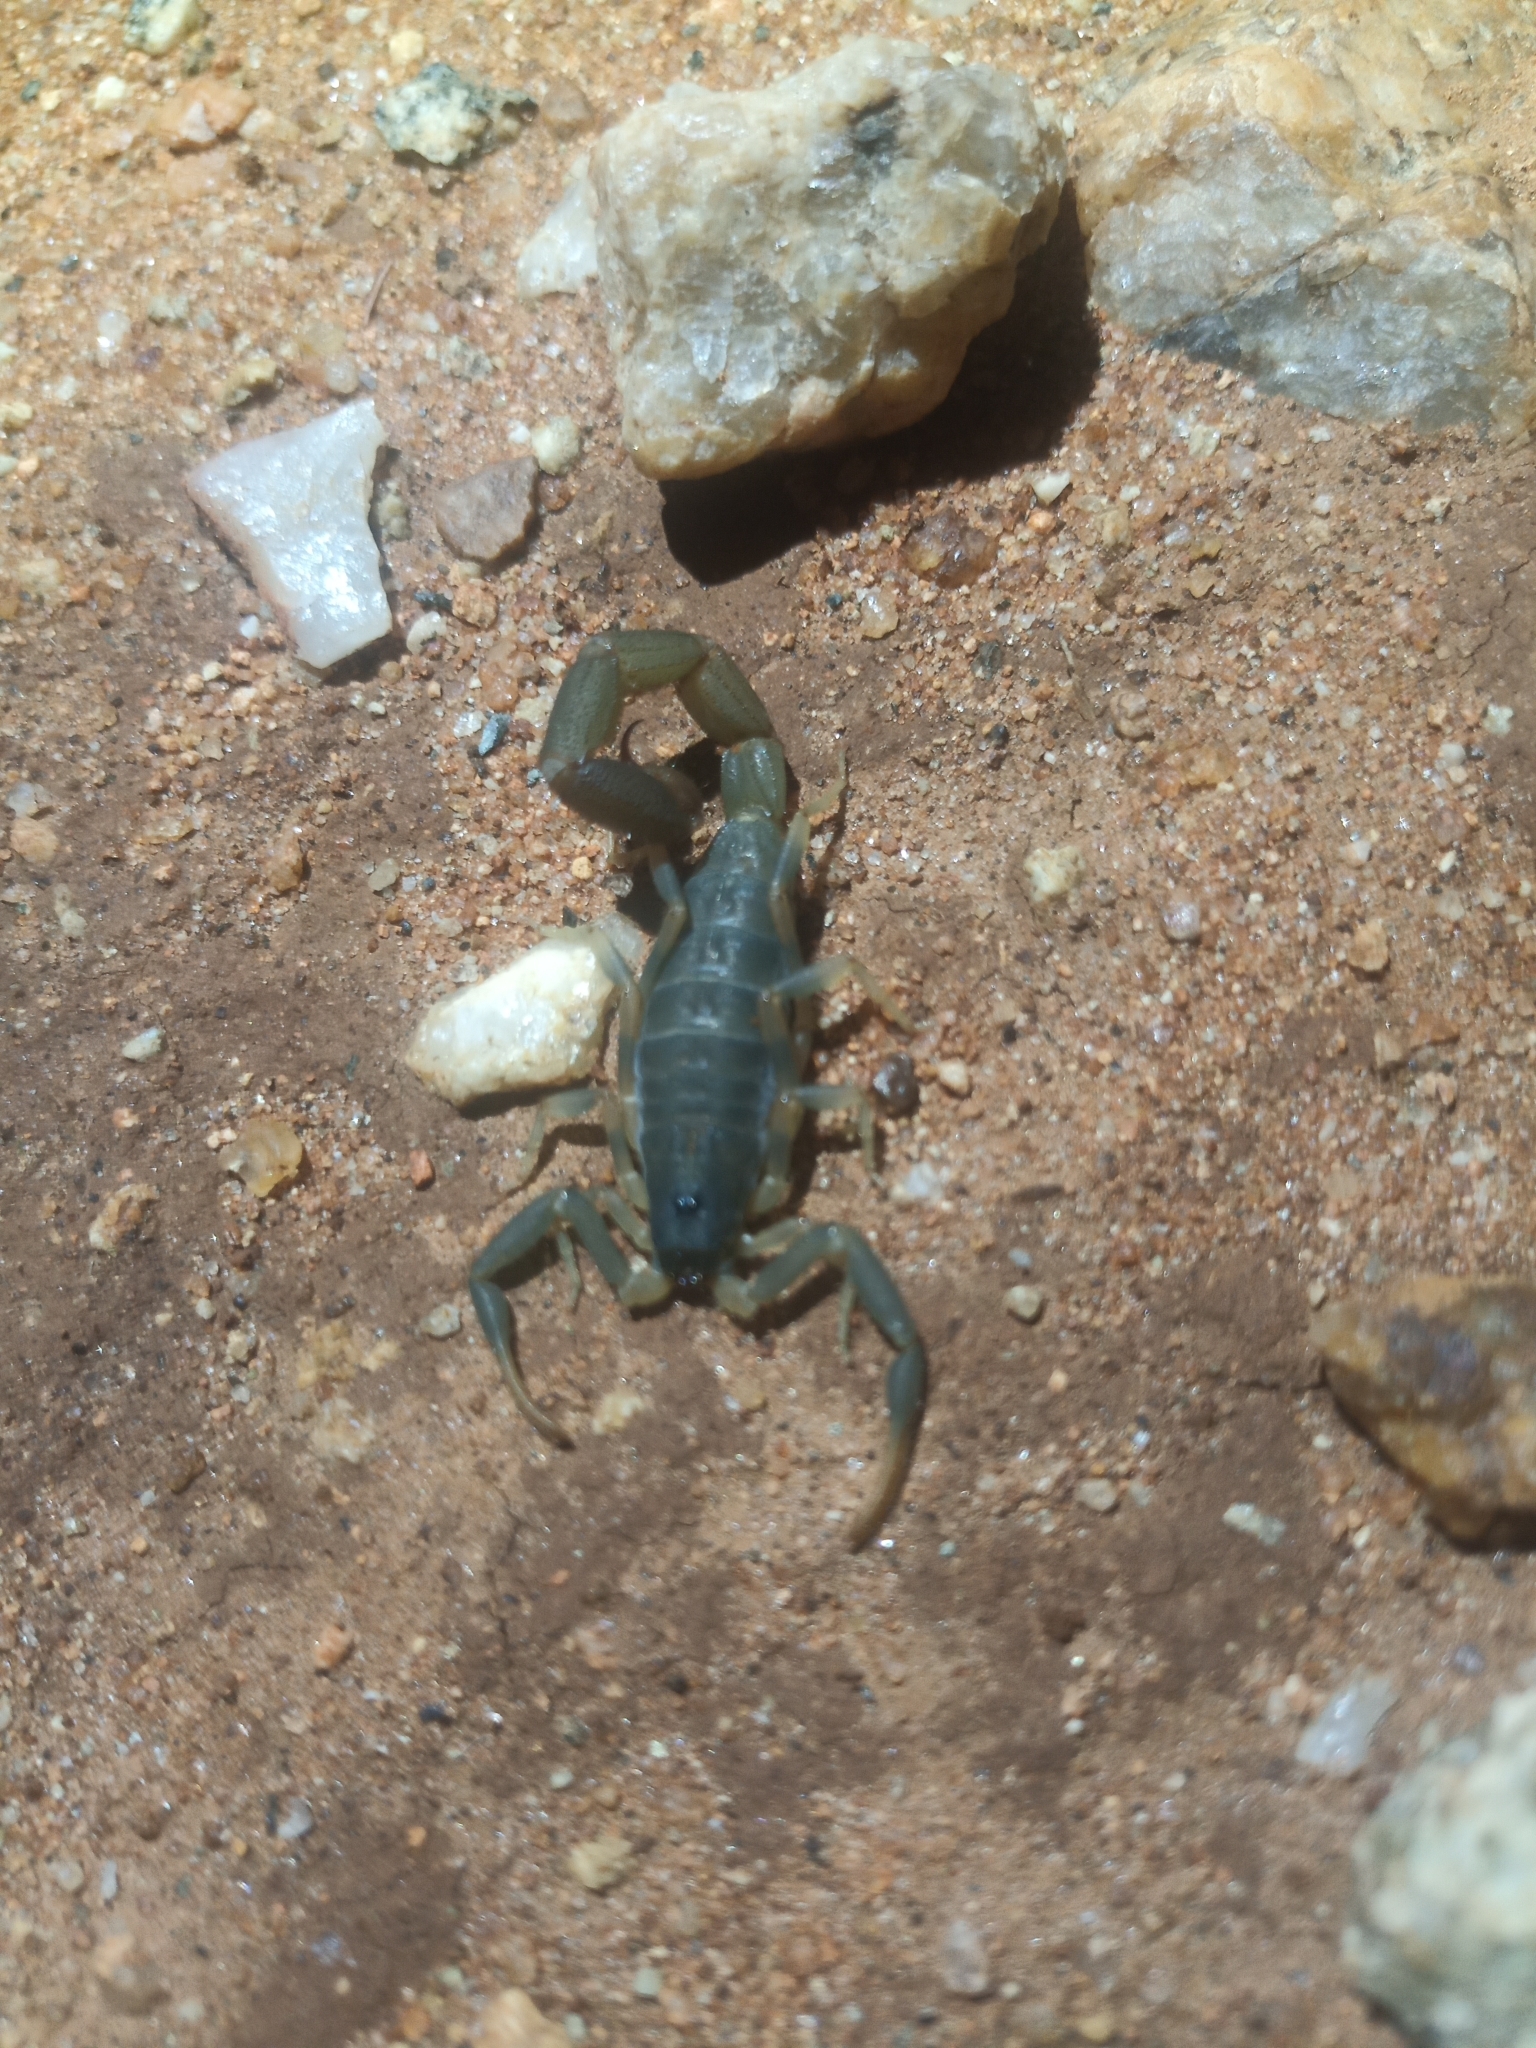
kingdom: Animalia
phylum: Arthropoda
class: Arachnida
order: Scorpiones
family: Buthidae
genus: Uroplectes
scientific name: Uroplectes flavoviridis
